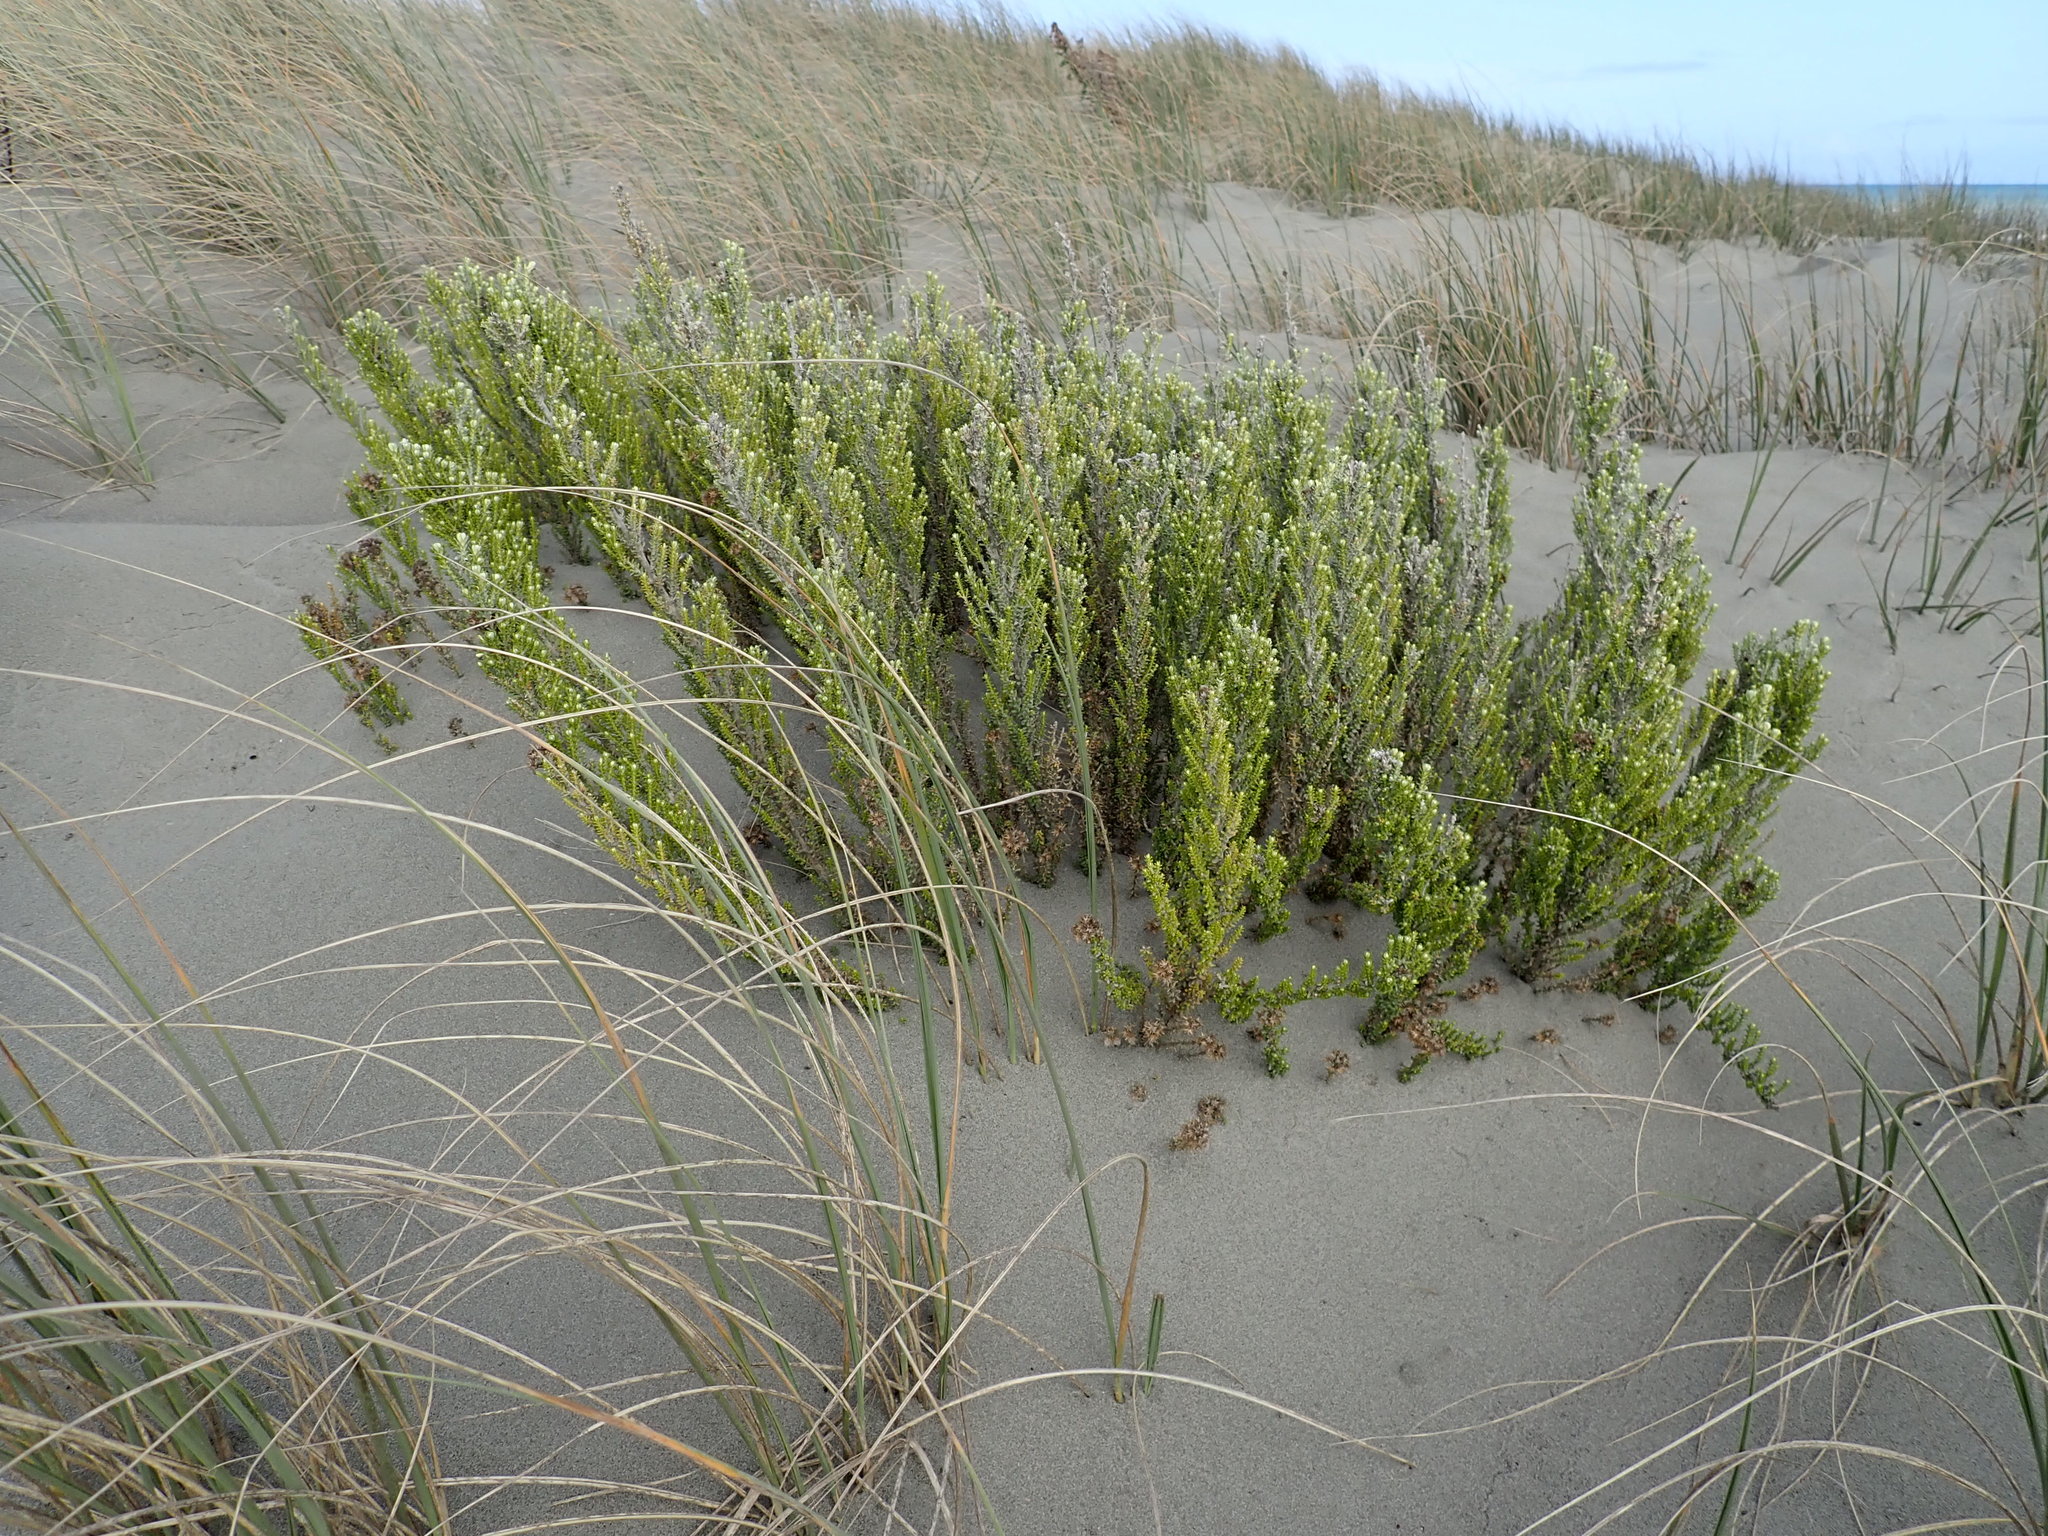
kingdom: Plantae
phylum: Tracheophyta
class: Magnoliopsida
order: Asterales
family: Asteraceae
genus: Ozothamnus
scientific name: Ozothamnus leptophyllus
